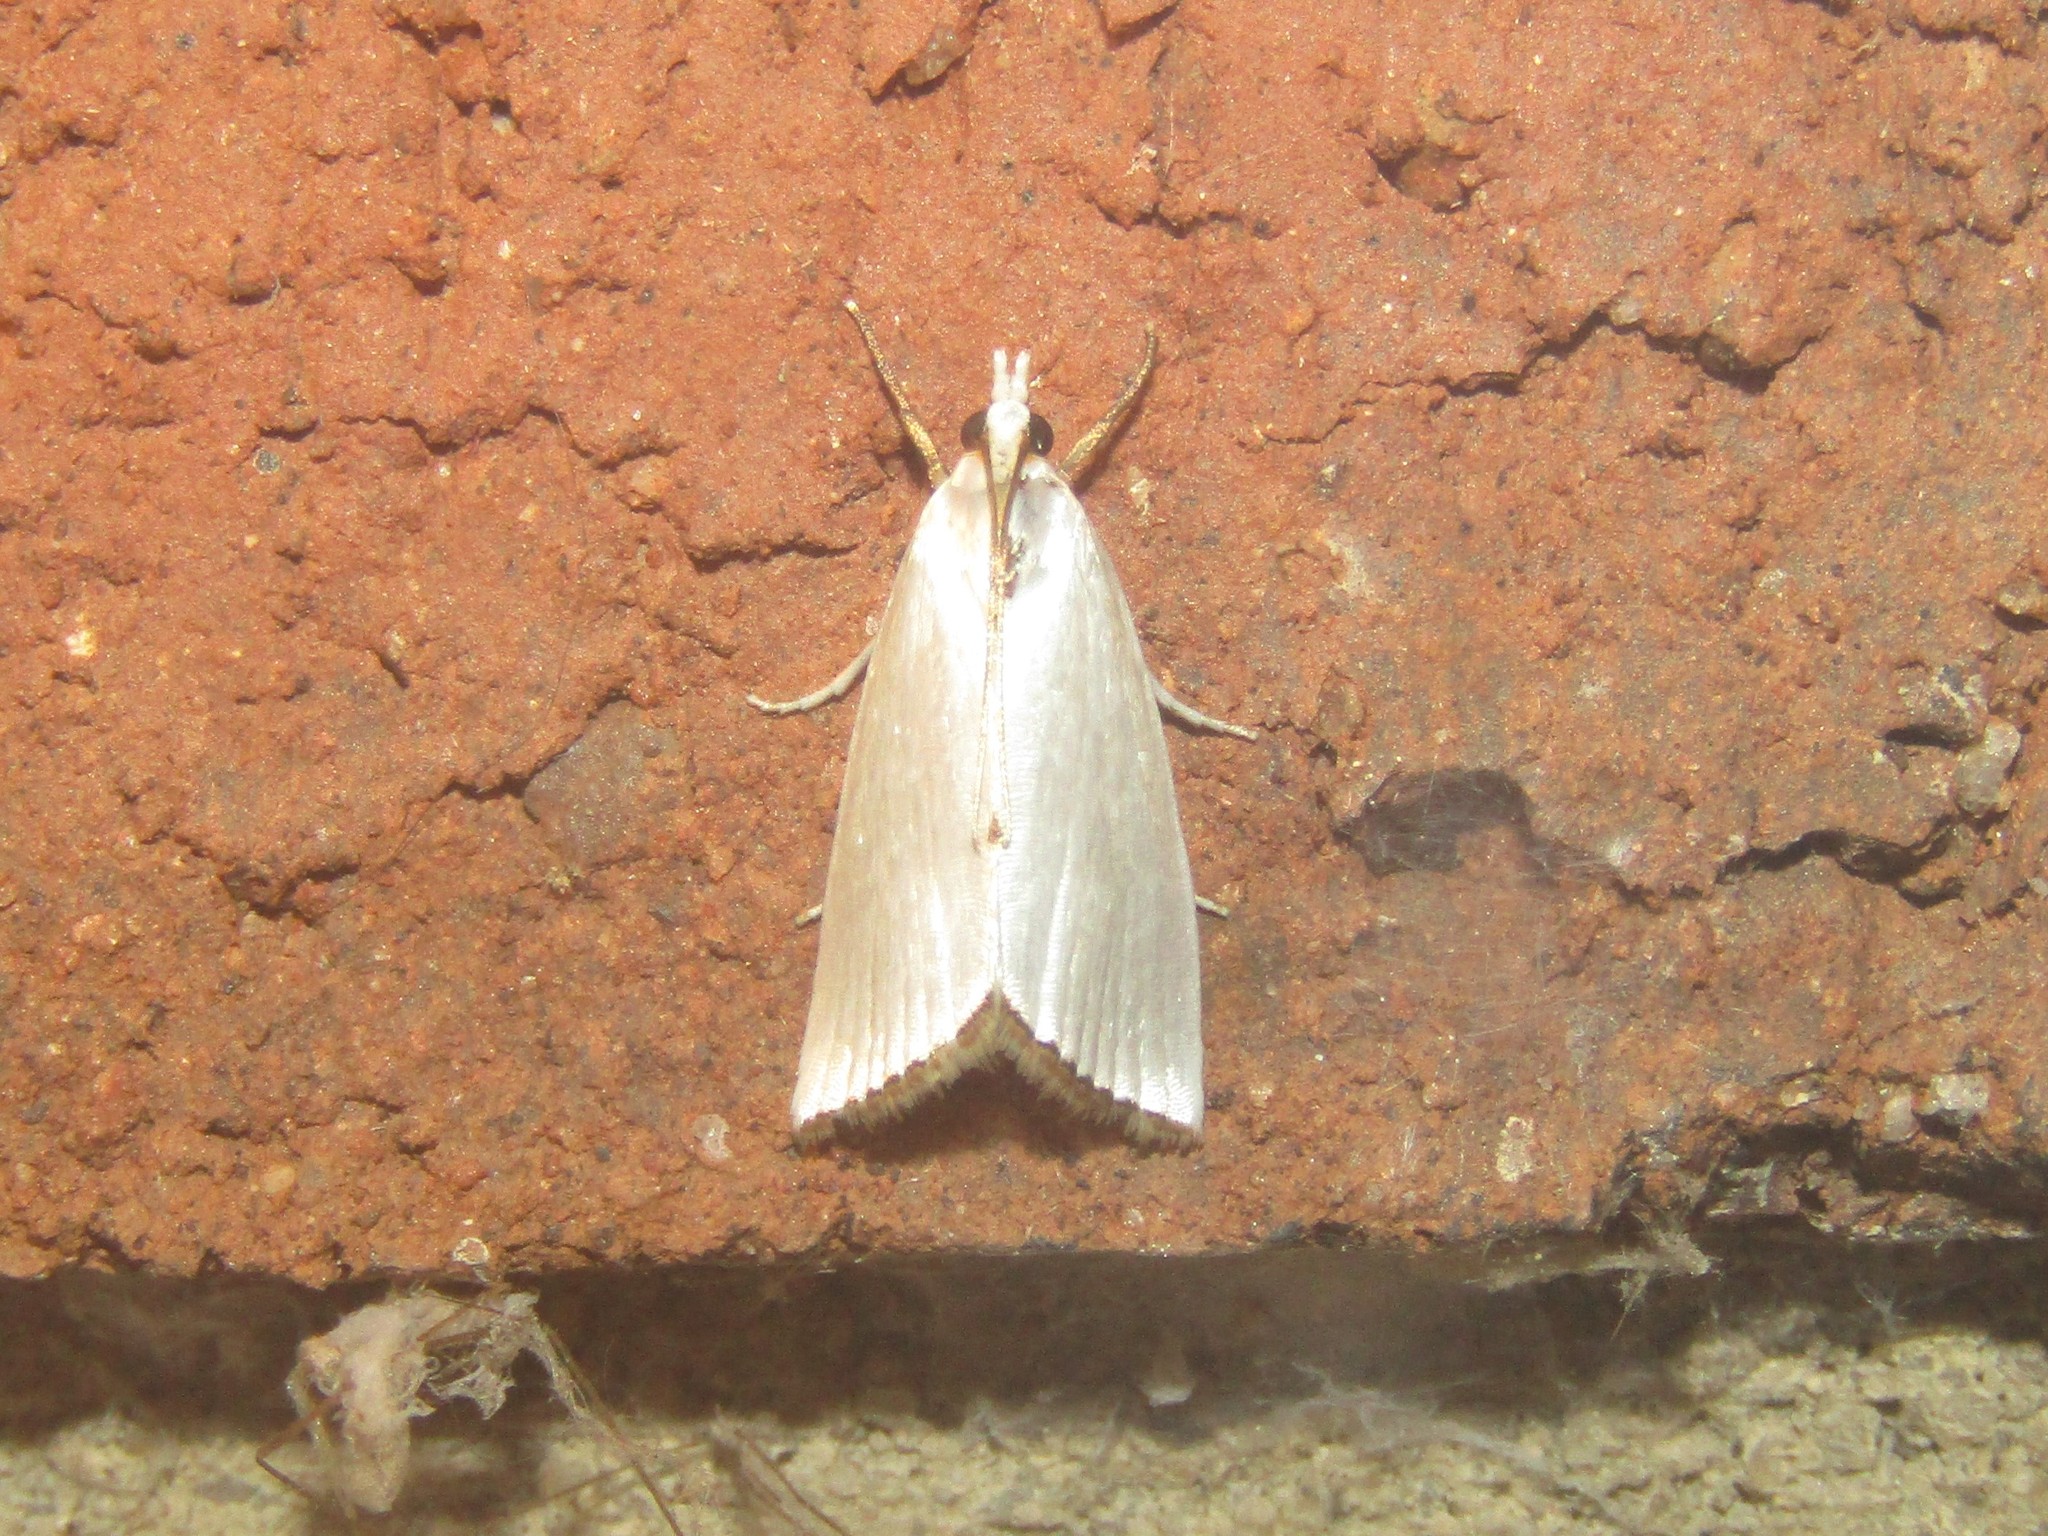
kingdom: Animalia
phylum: Arthropoda
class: Insecta
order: Lepidoptera
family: Crambidae
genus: Argyria
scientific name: Argyria nivalis
